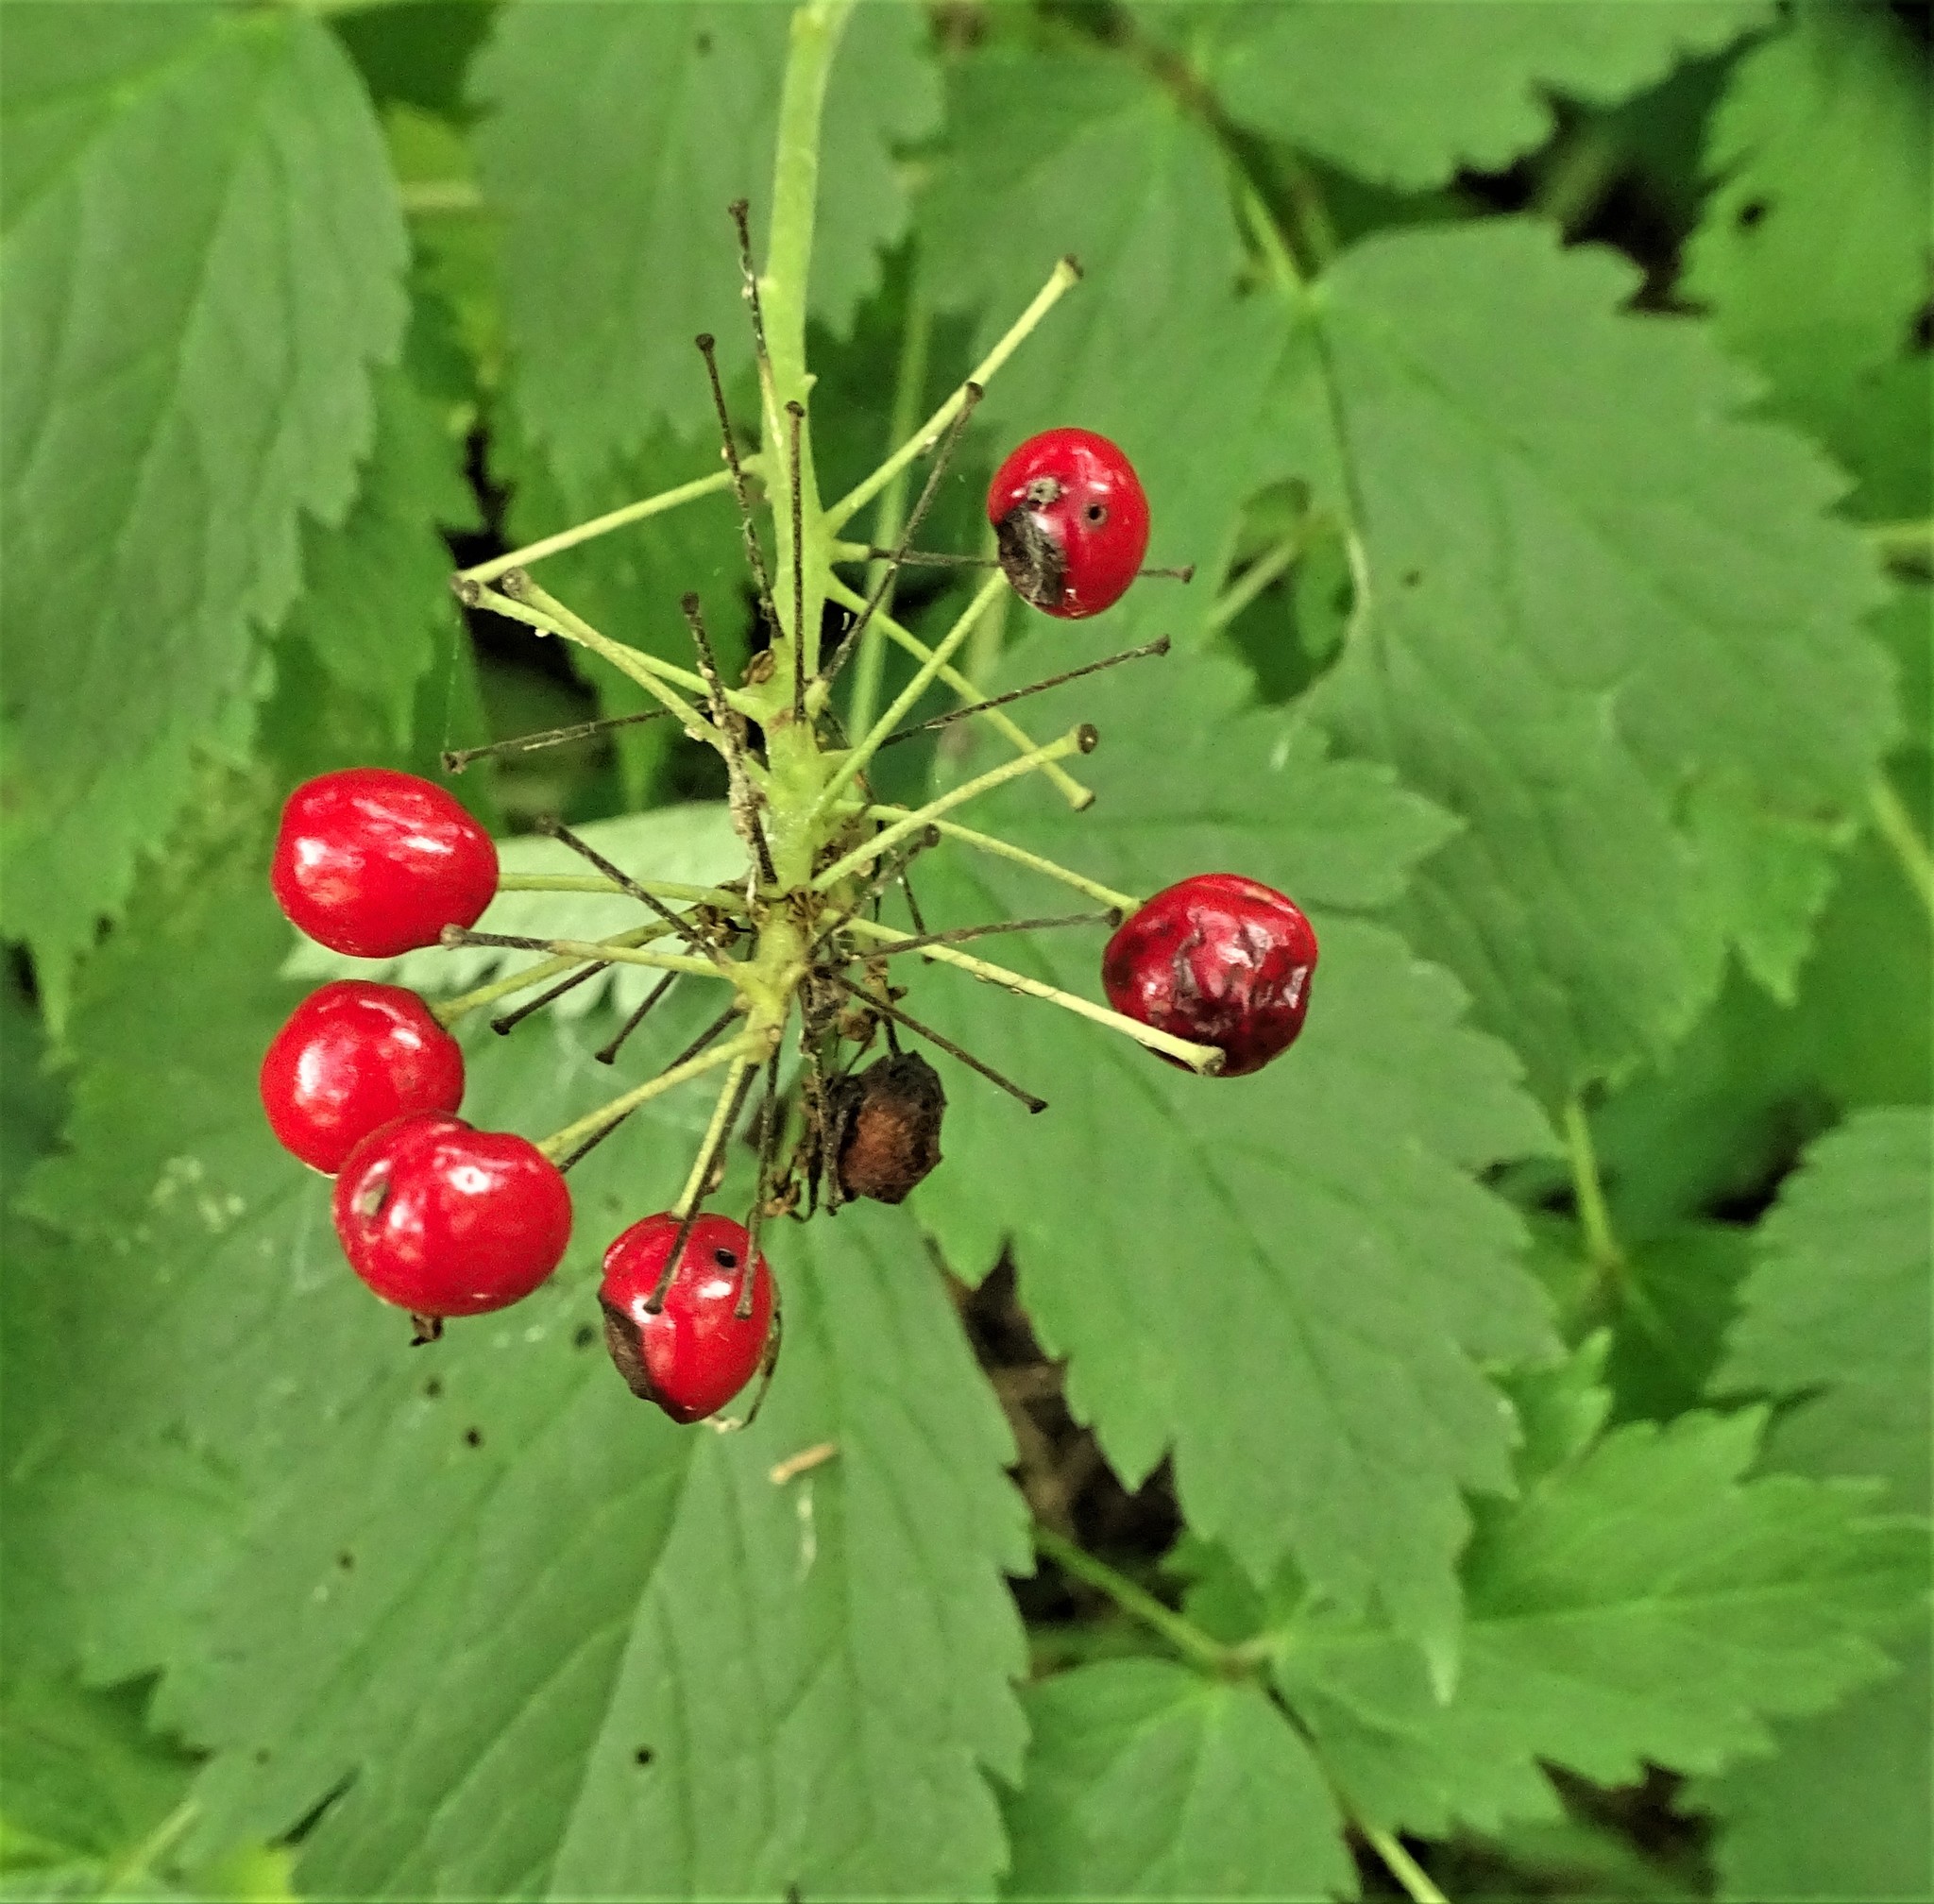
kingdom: Plantae
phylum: Tracheophyta
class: Magnoliopsida
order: Ranunculales
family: Ranunculaceae
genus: Actaea
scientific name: Actaea rubra
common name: Red baneberry
